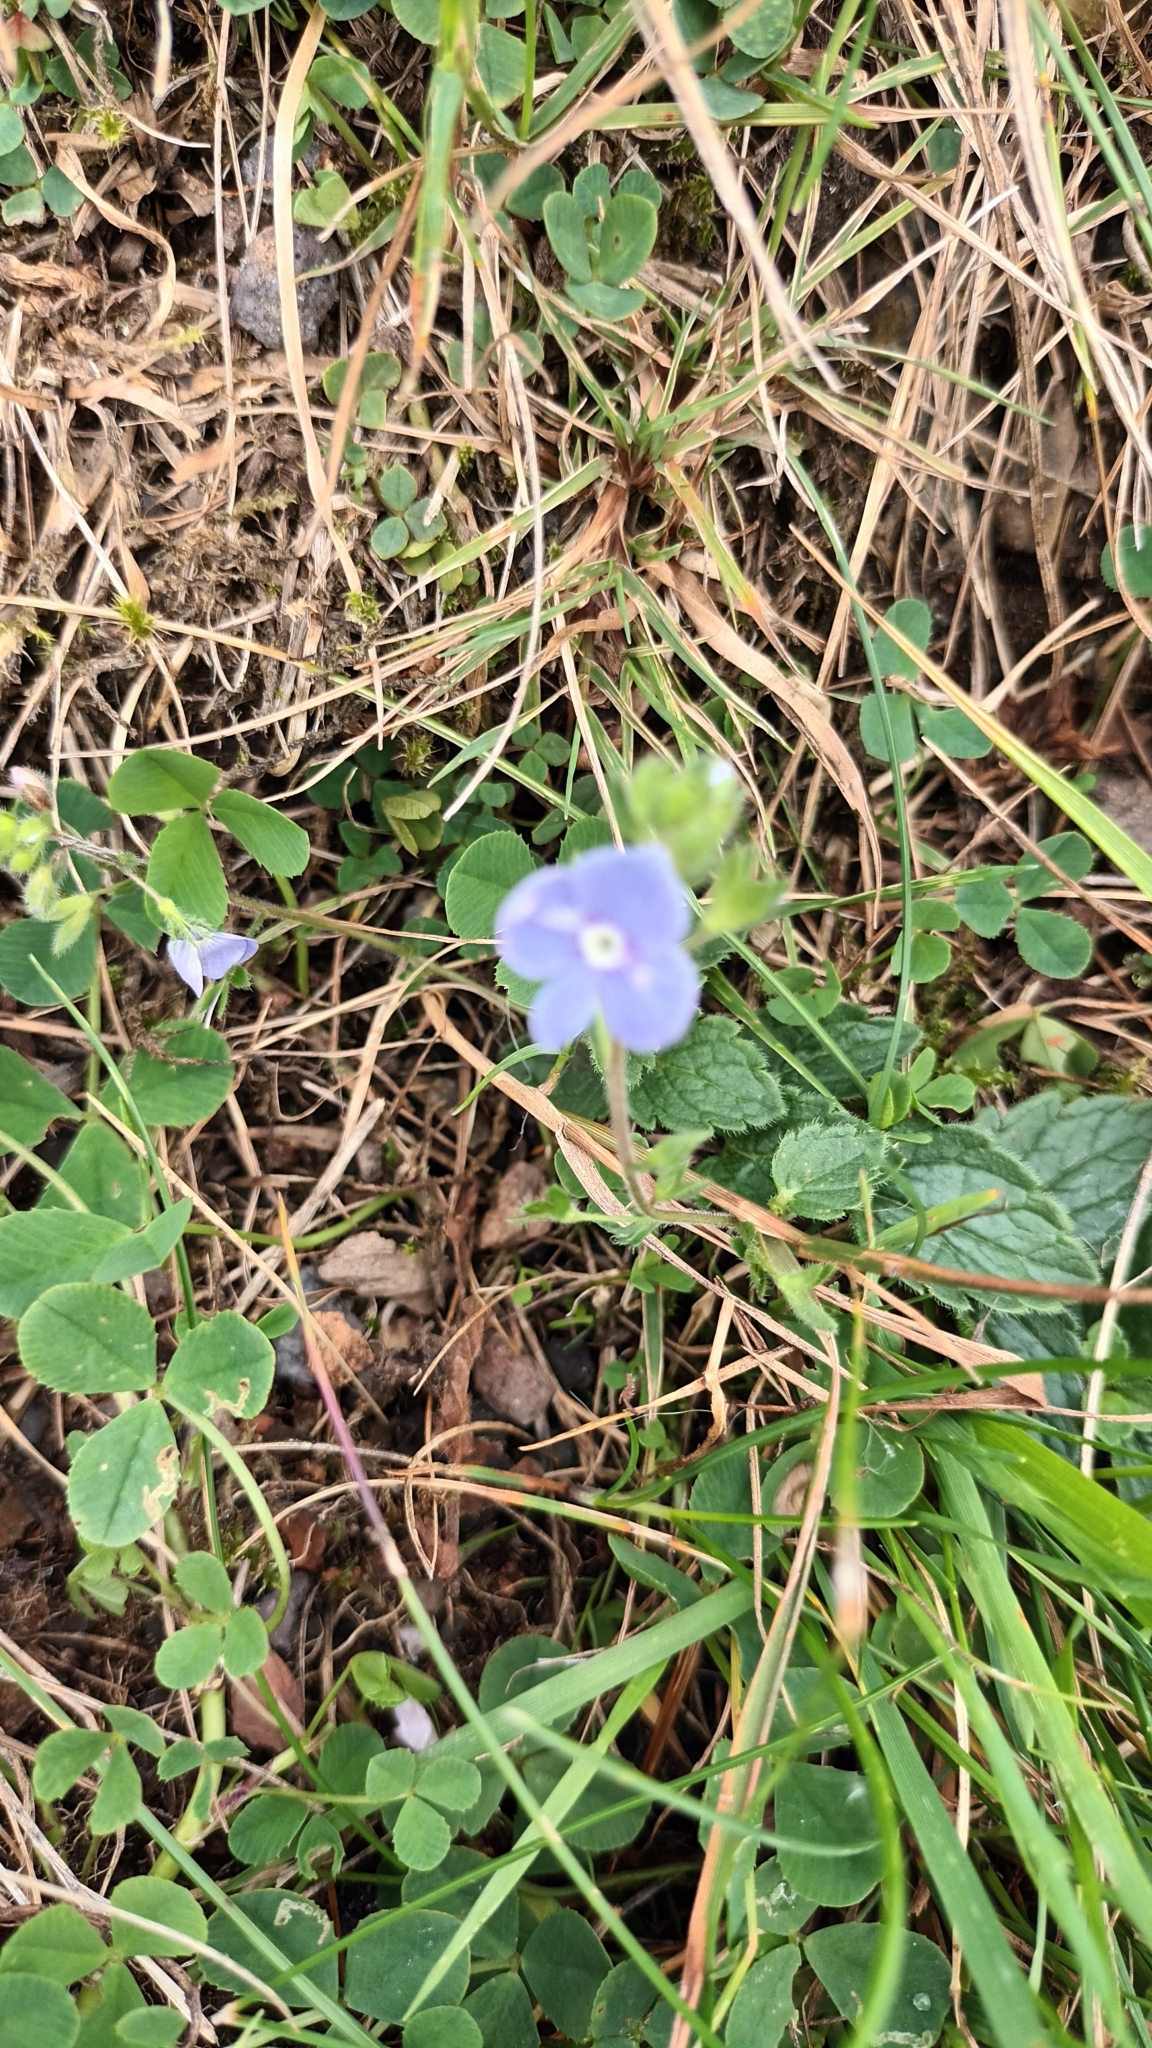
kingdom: Plantae
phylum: Tracheophyta
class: Magnoliopsida
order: Lamiales
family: Plantaginaceae
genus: Veronica
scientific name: Veronica chamaedrys
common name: Germander speedwell
